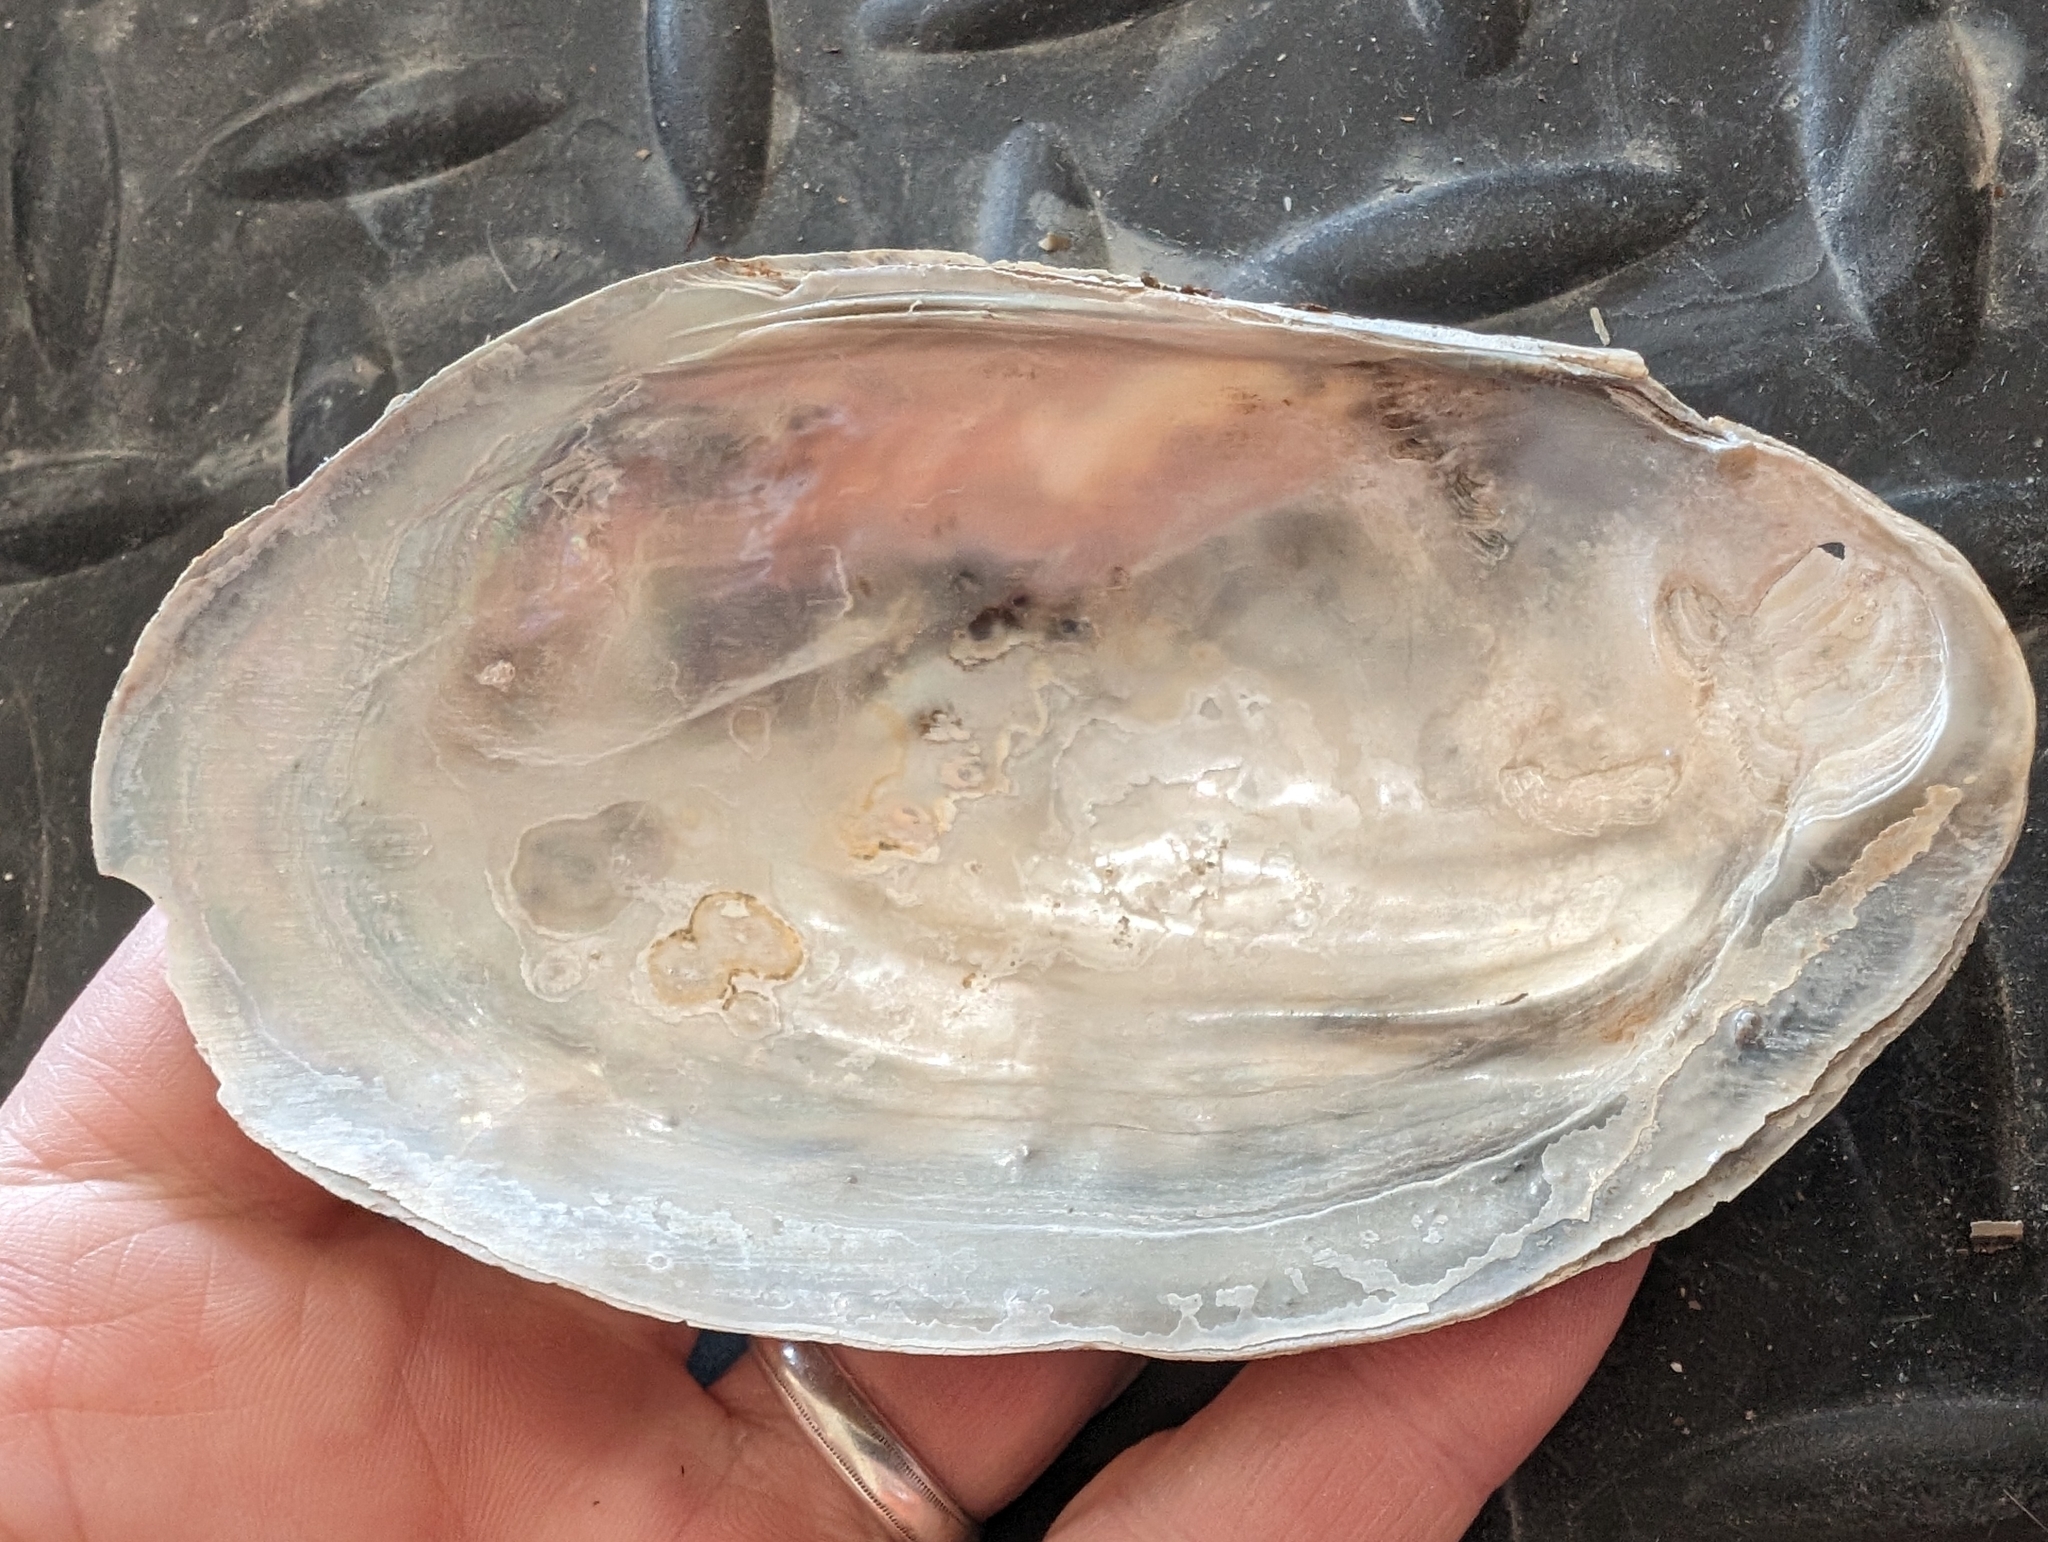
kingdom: Animalia
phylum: Mollusca
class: Bivalvia
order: Unionida
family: Unionidae
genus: Potamilus
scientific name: Potamilus fragilis
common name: Fragile papershell
